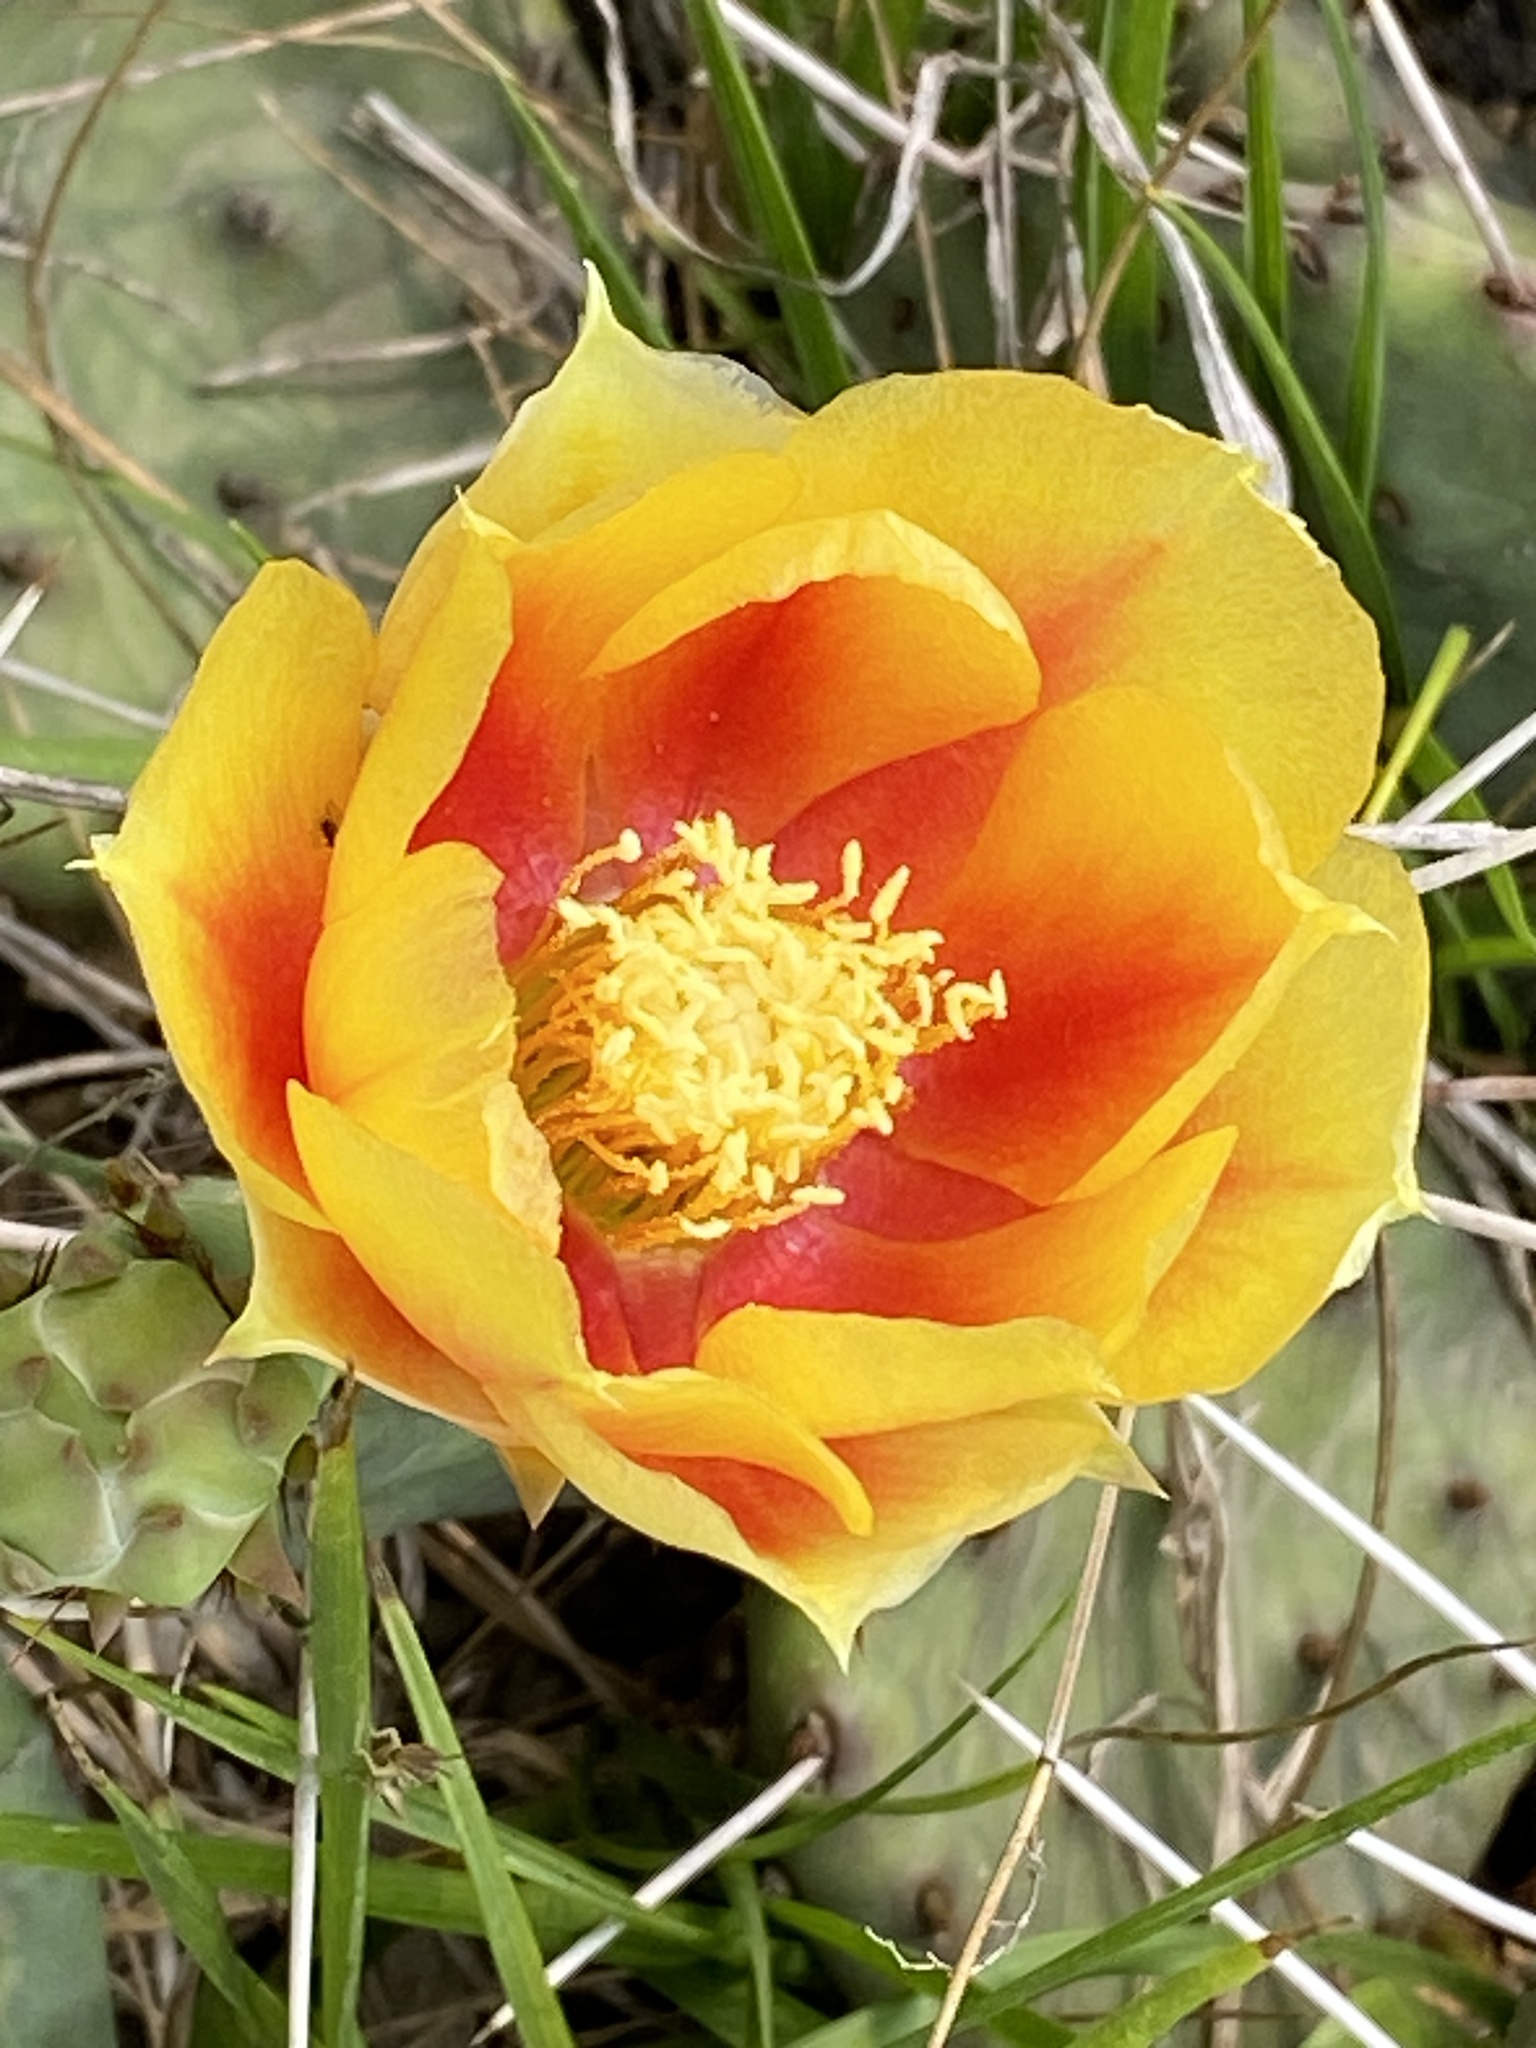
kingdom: Plantae
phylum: Tracheophyta
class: Magnoliopsida
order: Caryophyllales
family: Cactaceae
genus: Opuntia
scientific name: Opuntia humifusa
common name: Eastern prickly-pear
